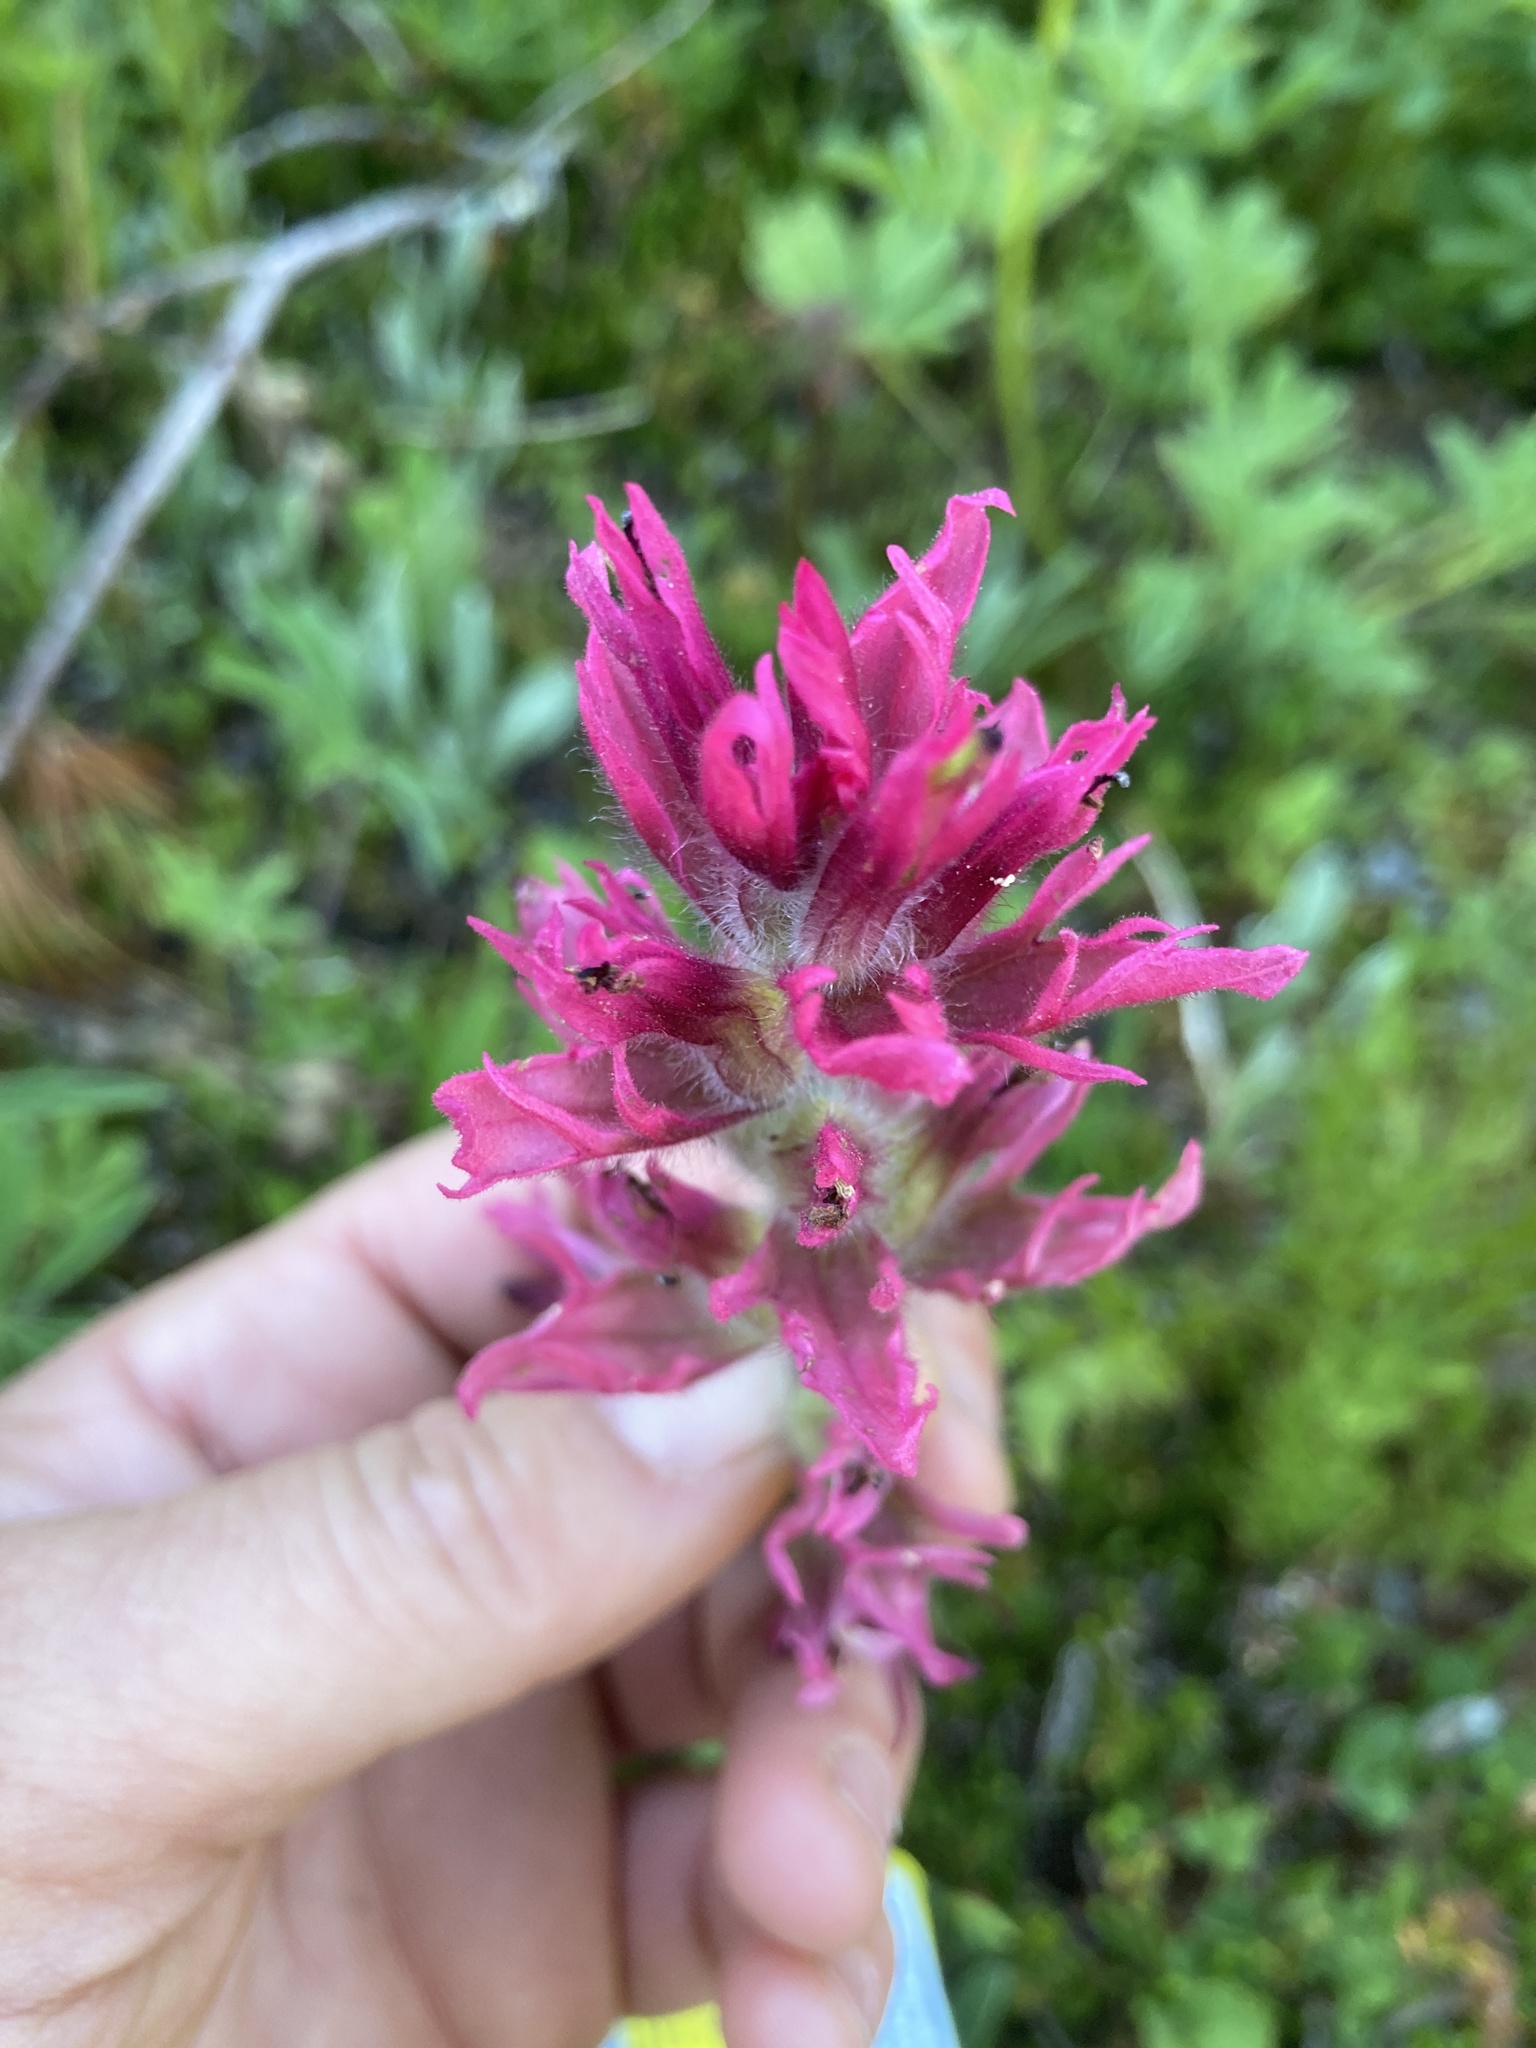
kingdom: Plantae
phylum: Tracheophyta
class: Magnoliopsida
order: Lamiales
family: Orobanchaceae
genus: Castilleja
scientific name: Castilleja parviflora
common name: Mountain paintbrush
